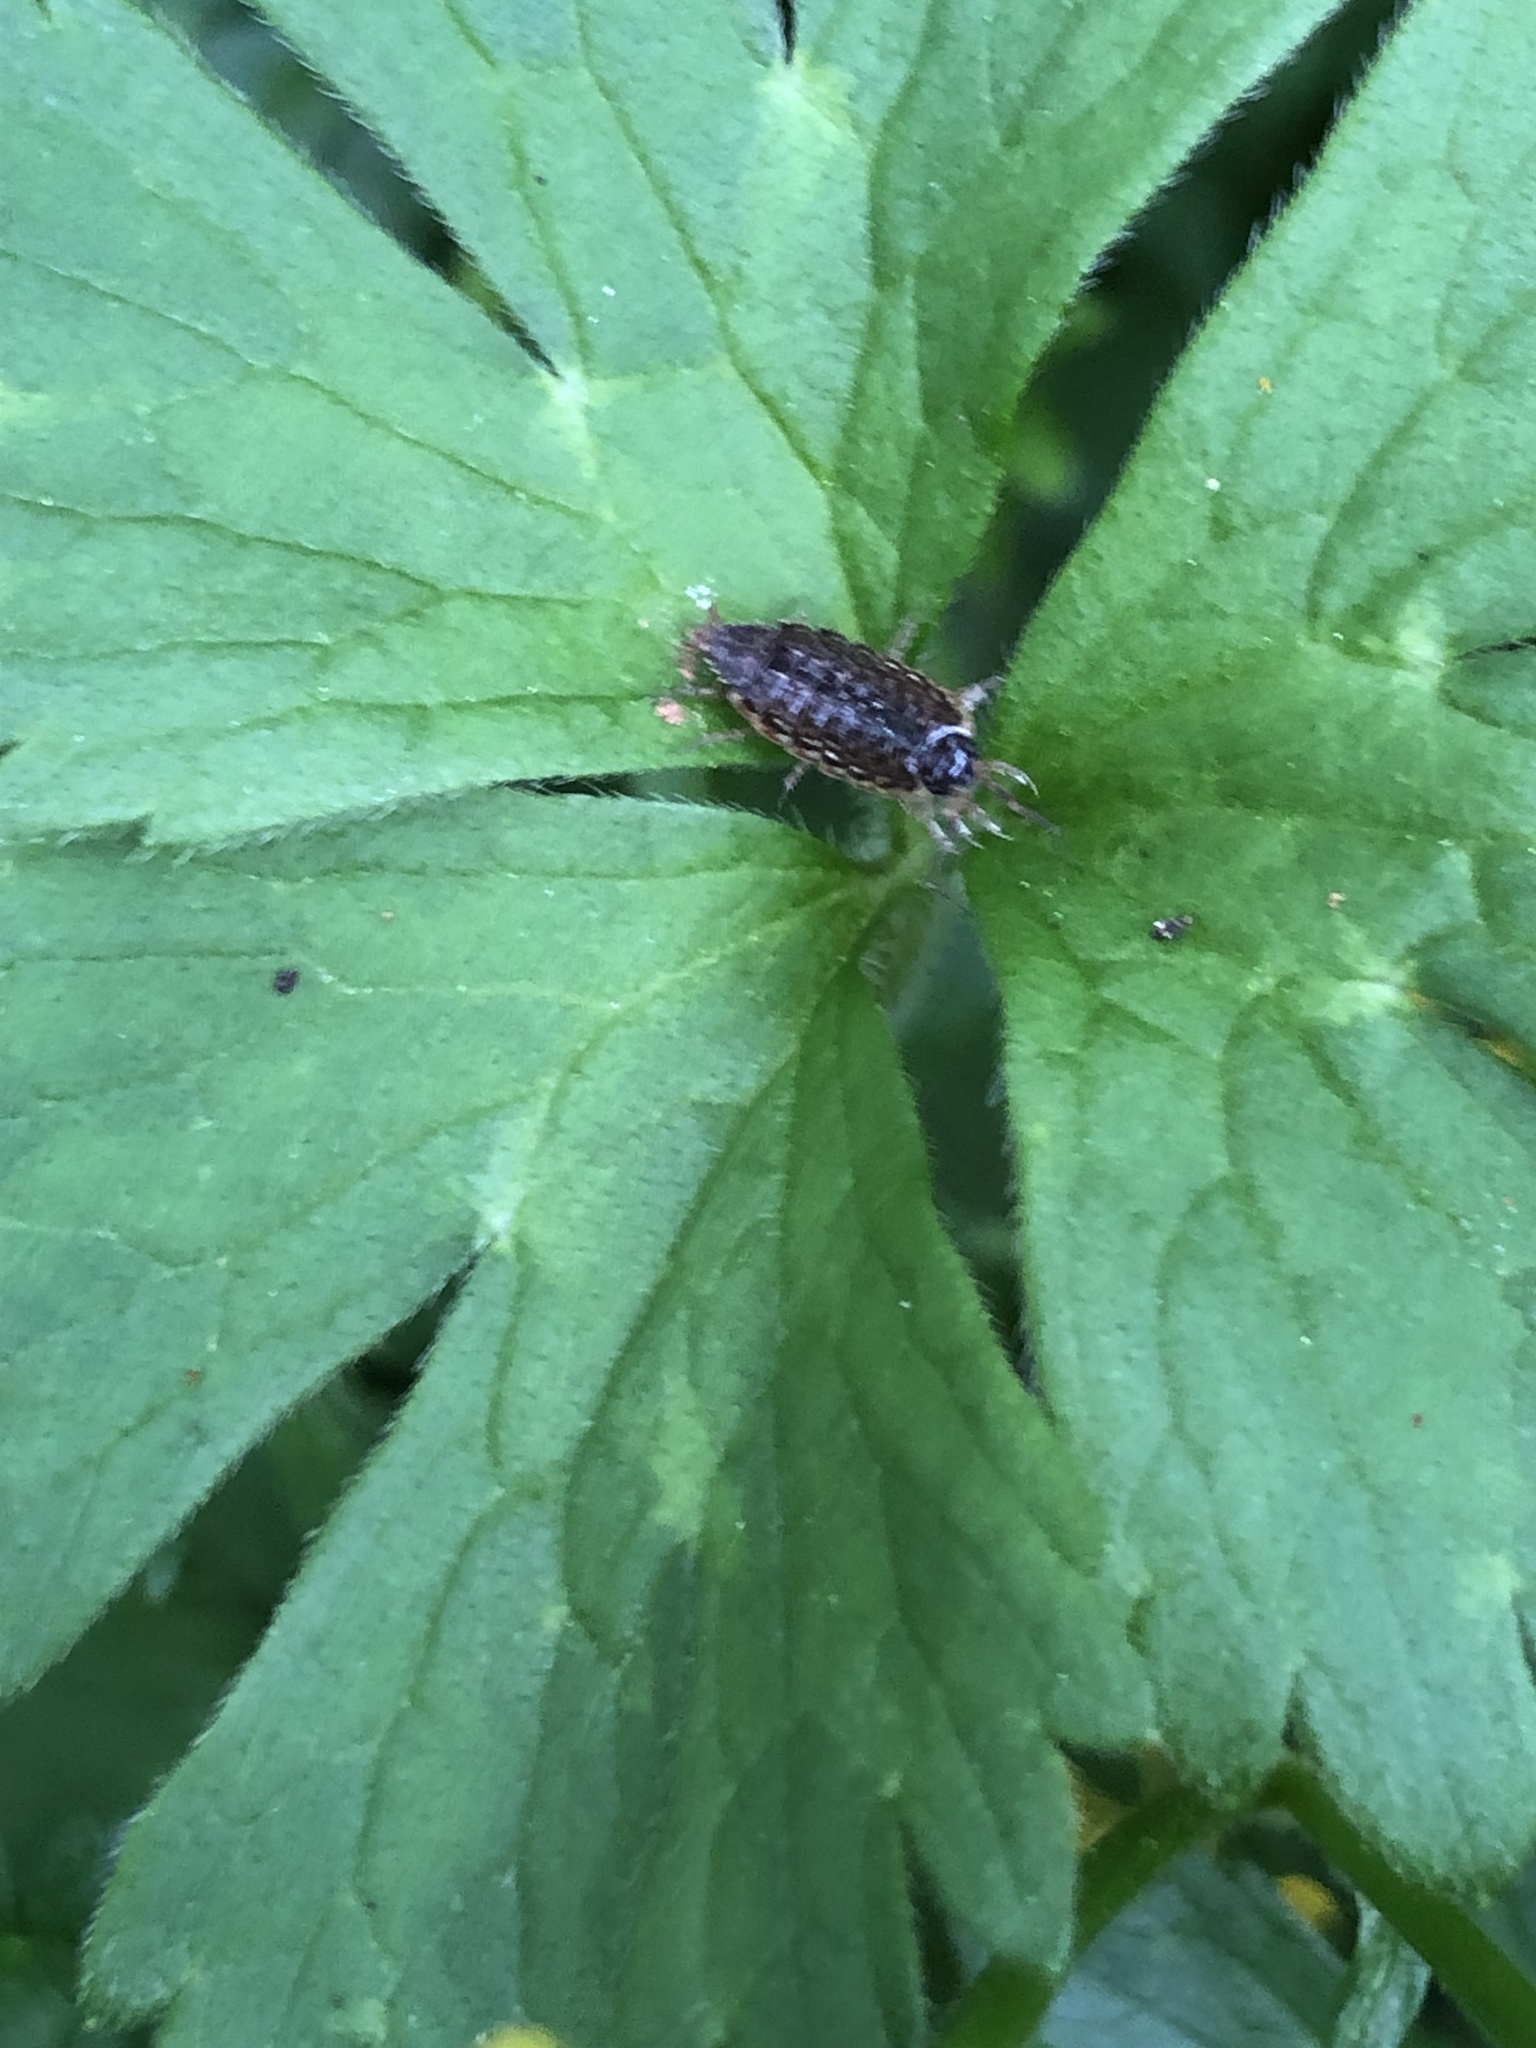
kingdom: Animalia
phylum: Arthropoda
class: Malacostraca
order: Isopoda
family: Philosciidae
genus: Philoscia
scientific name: Philoscia muscorum
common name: Common striped woodlouse
